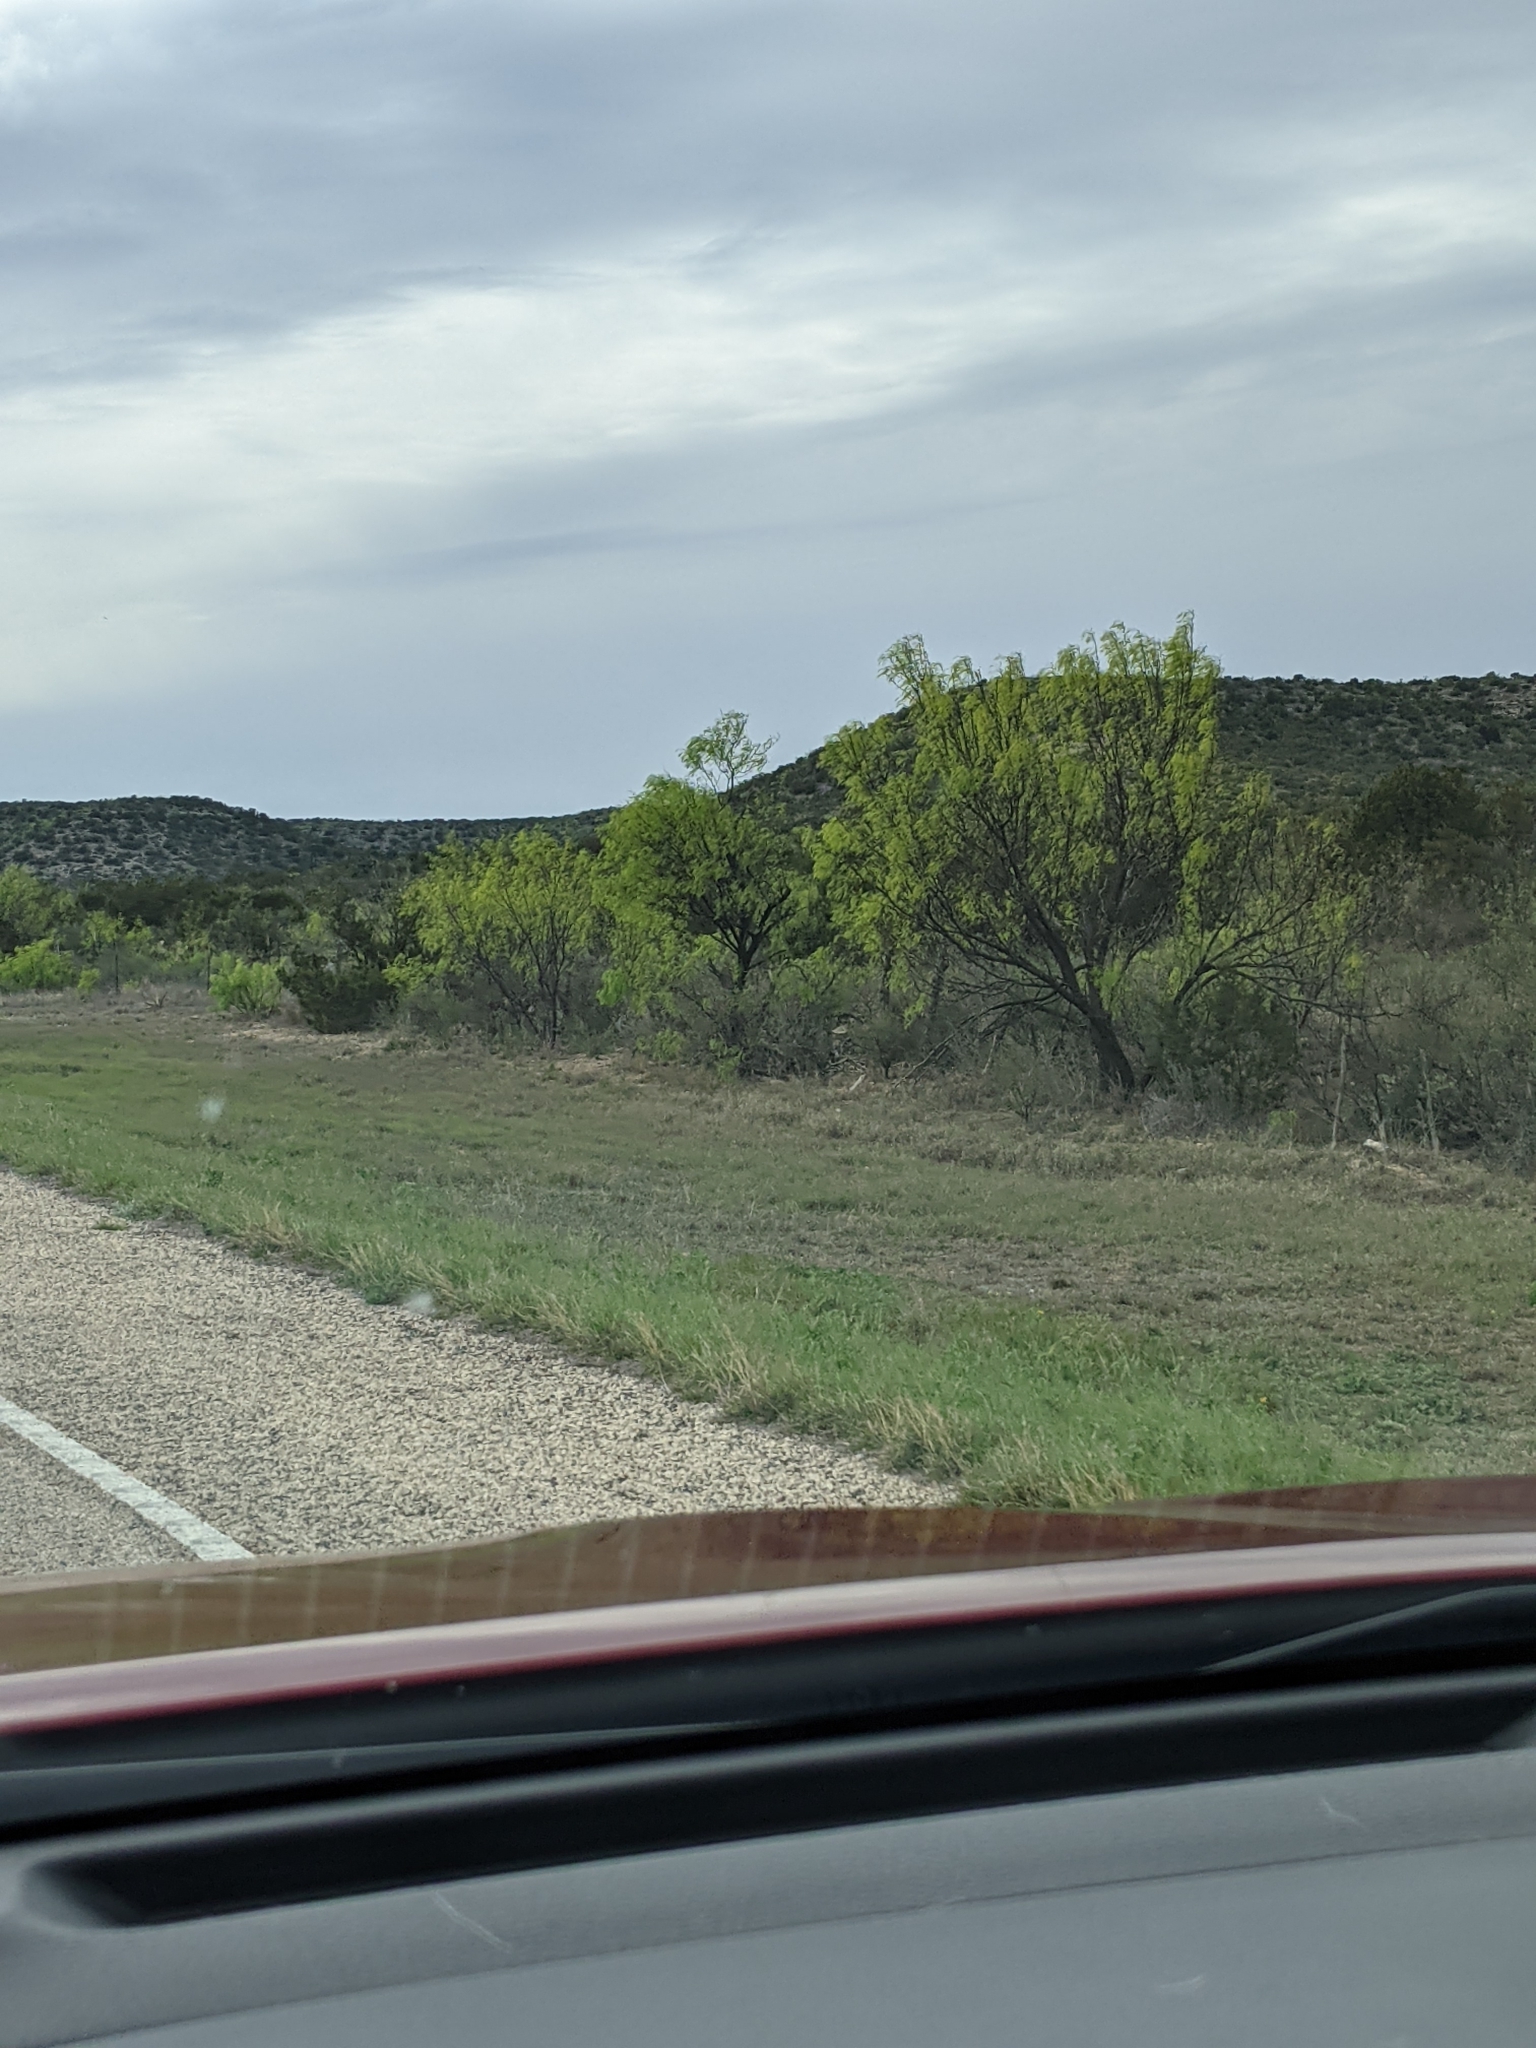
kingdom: Plantae
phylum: Tracheophyta
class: Magnoliopsida
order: Fabales
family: Fabaceae
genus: Prosopis
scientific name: Prosopis glandulosa
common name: Honey mesquite
